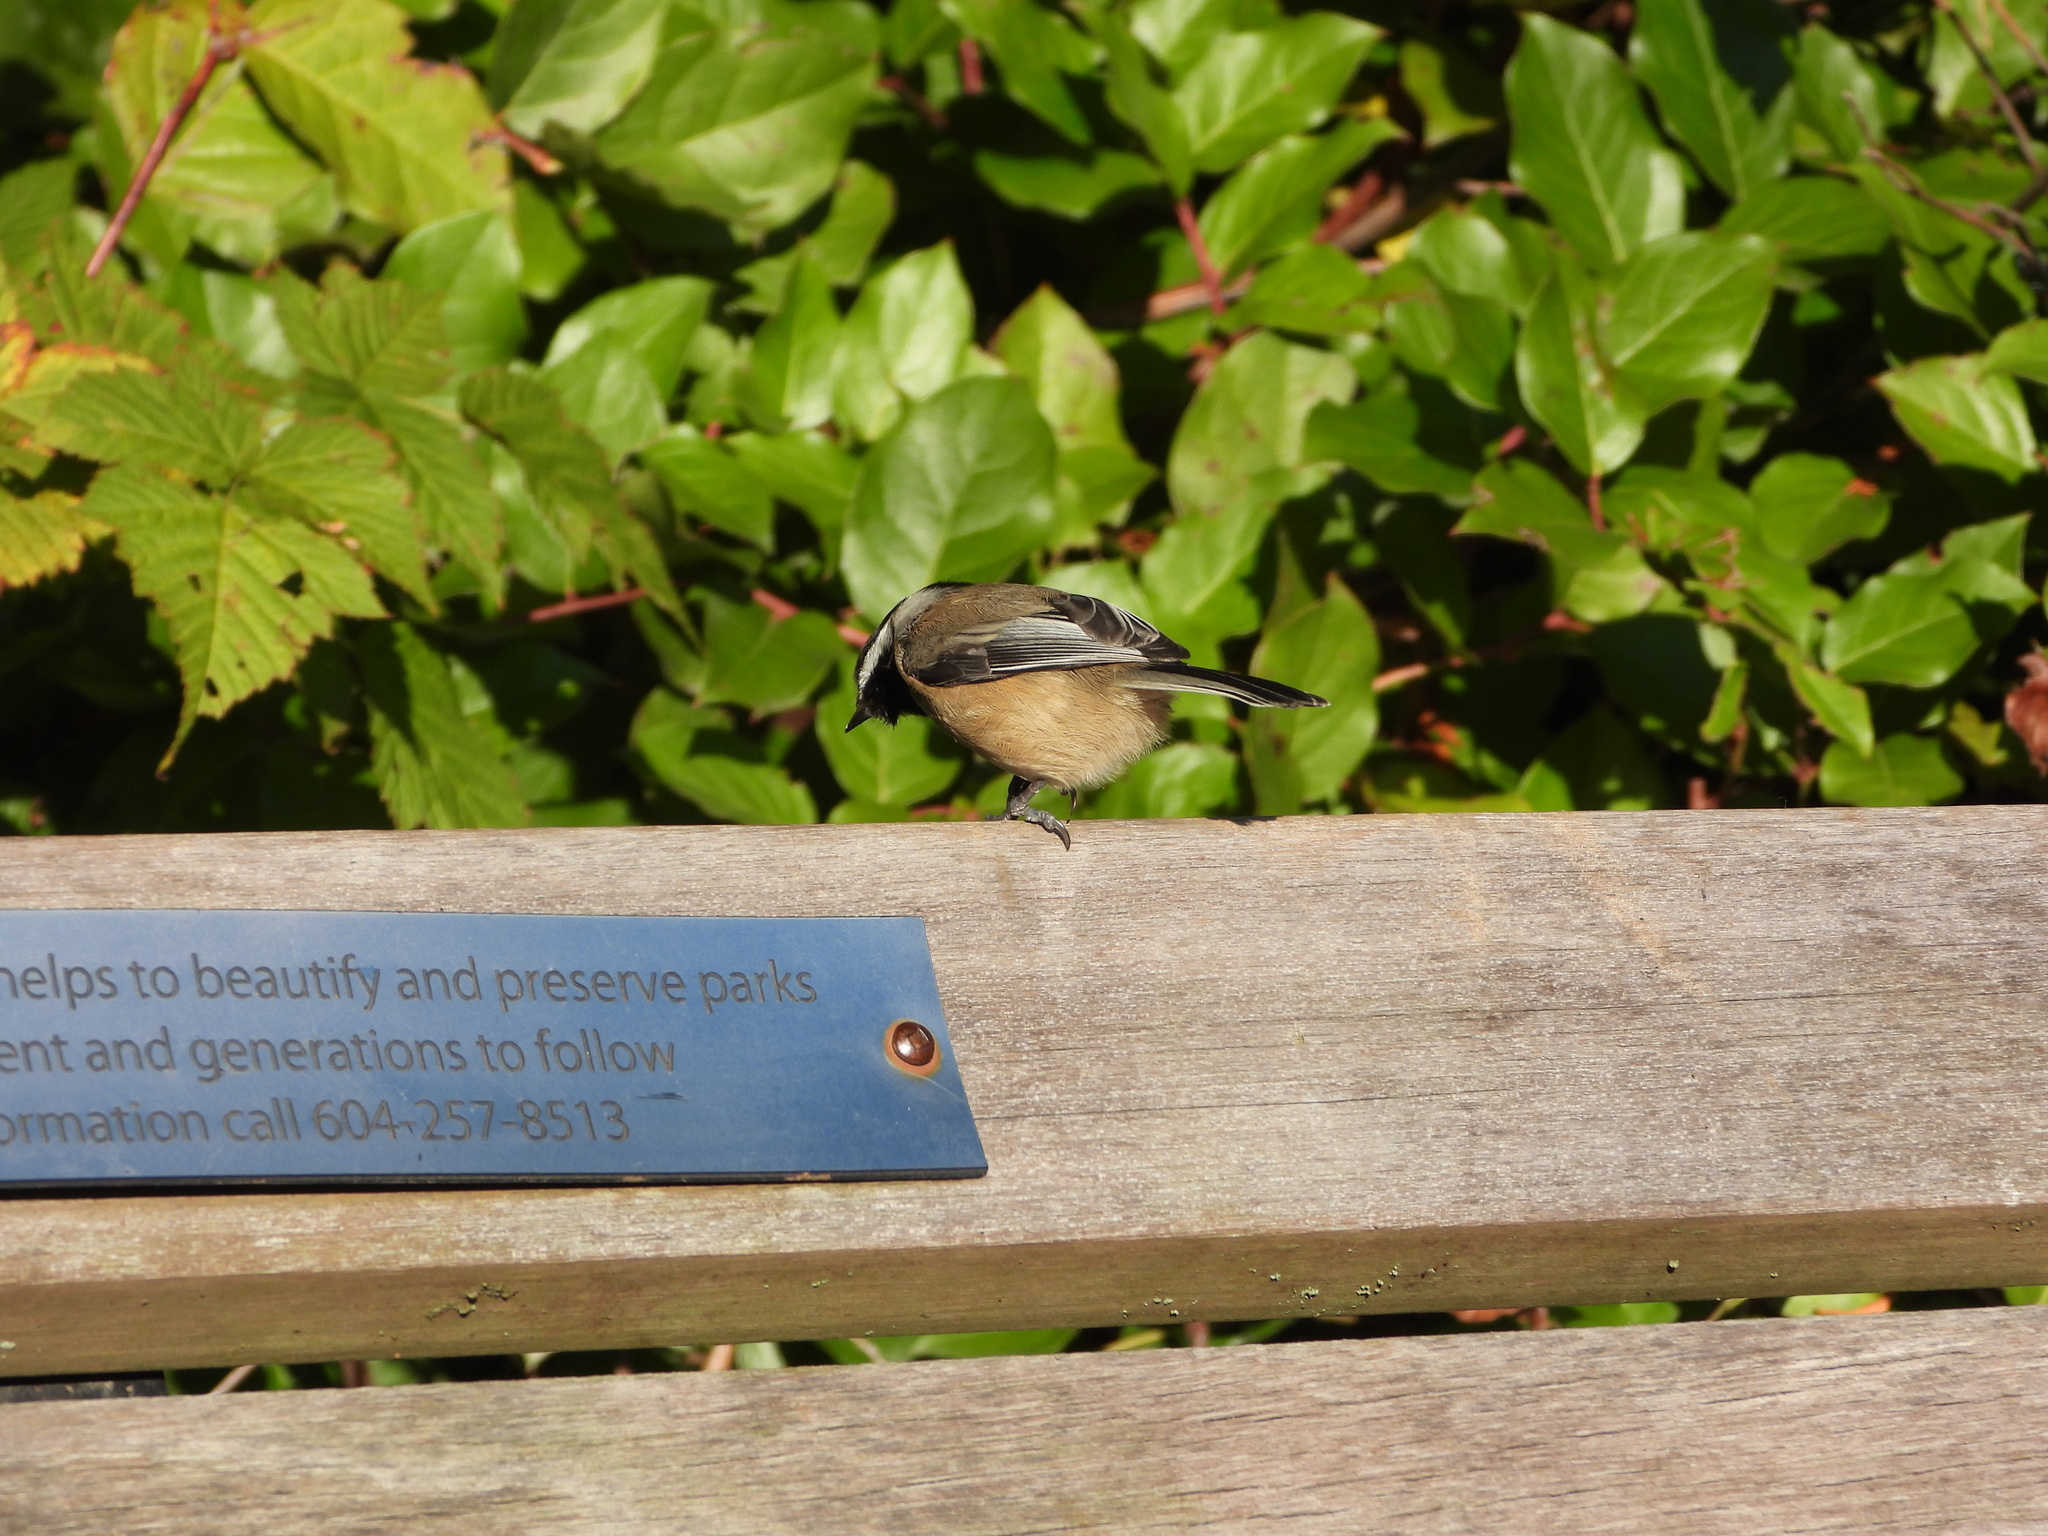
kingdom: Animalia
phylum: Chordata
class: Aves
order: Passeriformes
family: Paridae
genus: Poecile
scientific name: Poecile atricapillus
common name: Black-capped chickadee
